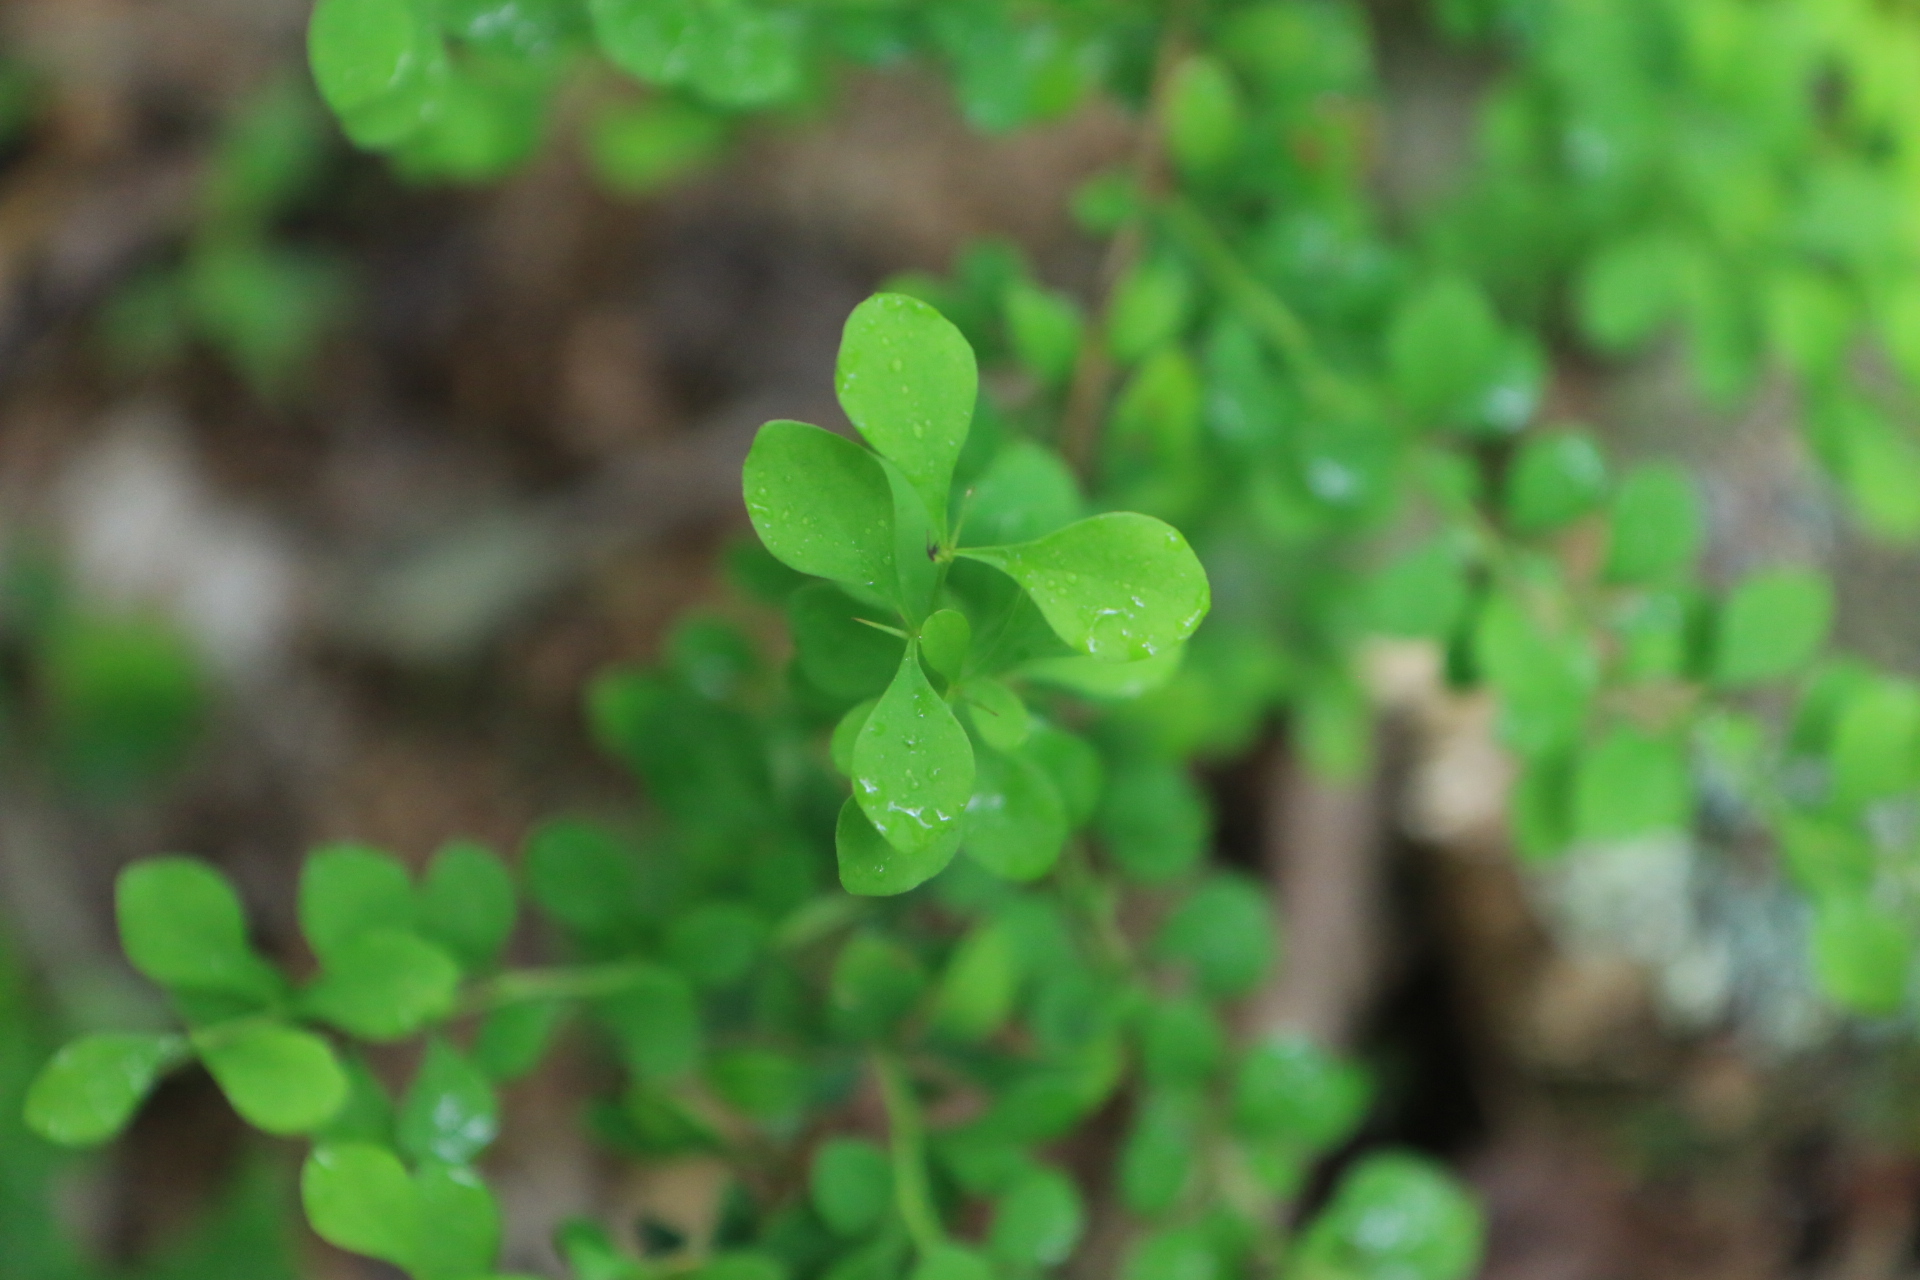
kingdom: Plantae
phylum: Tracheophyta
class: Magnoliopsida
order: Ranunculales
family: Berberidaceae
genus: Berberis
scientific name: Berberis thunbergii
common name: Japanese barberry
